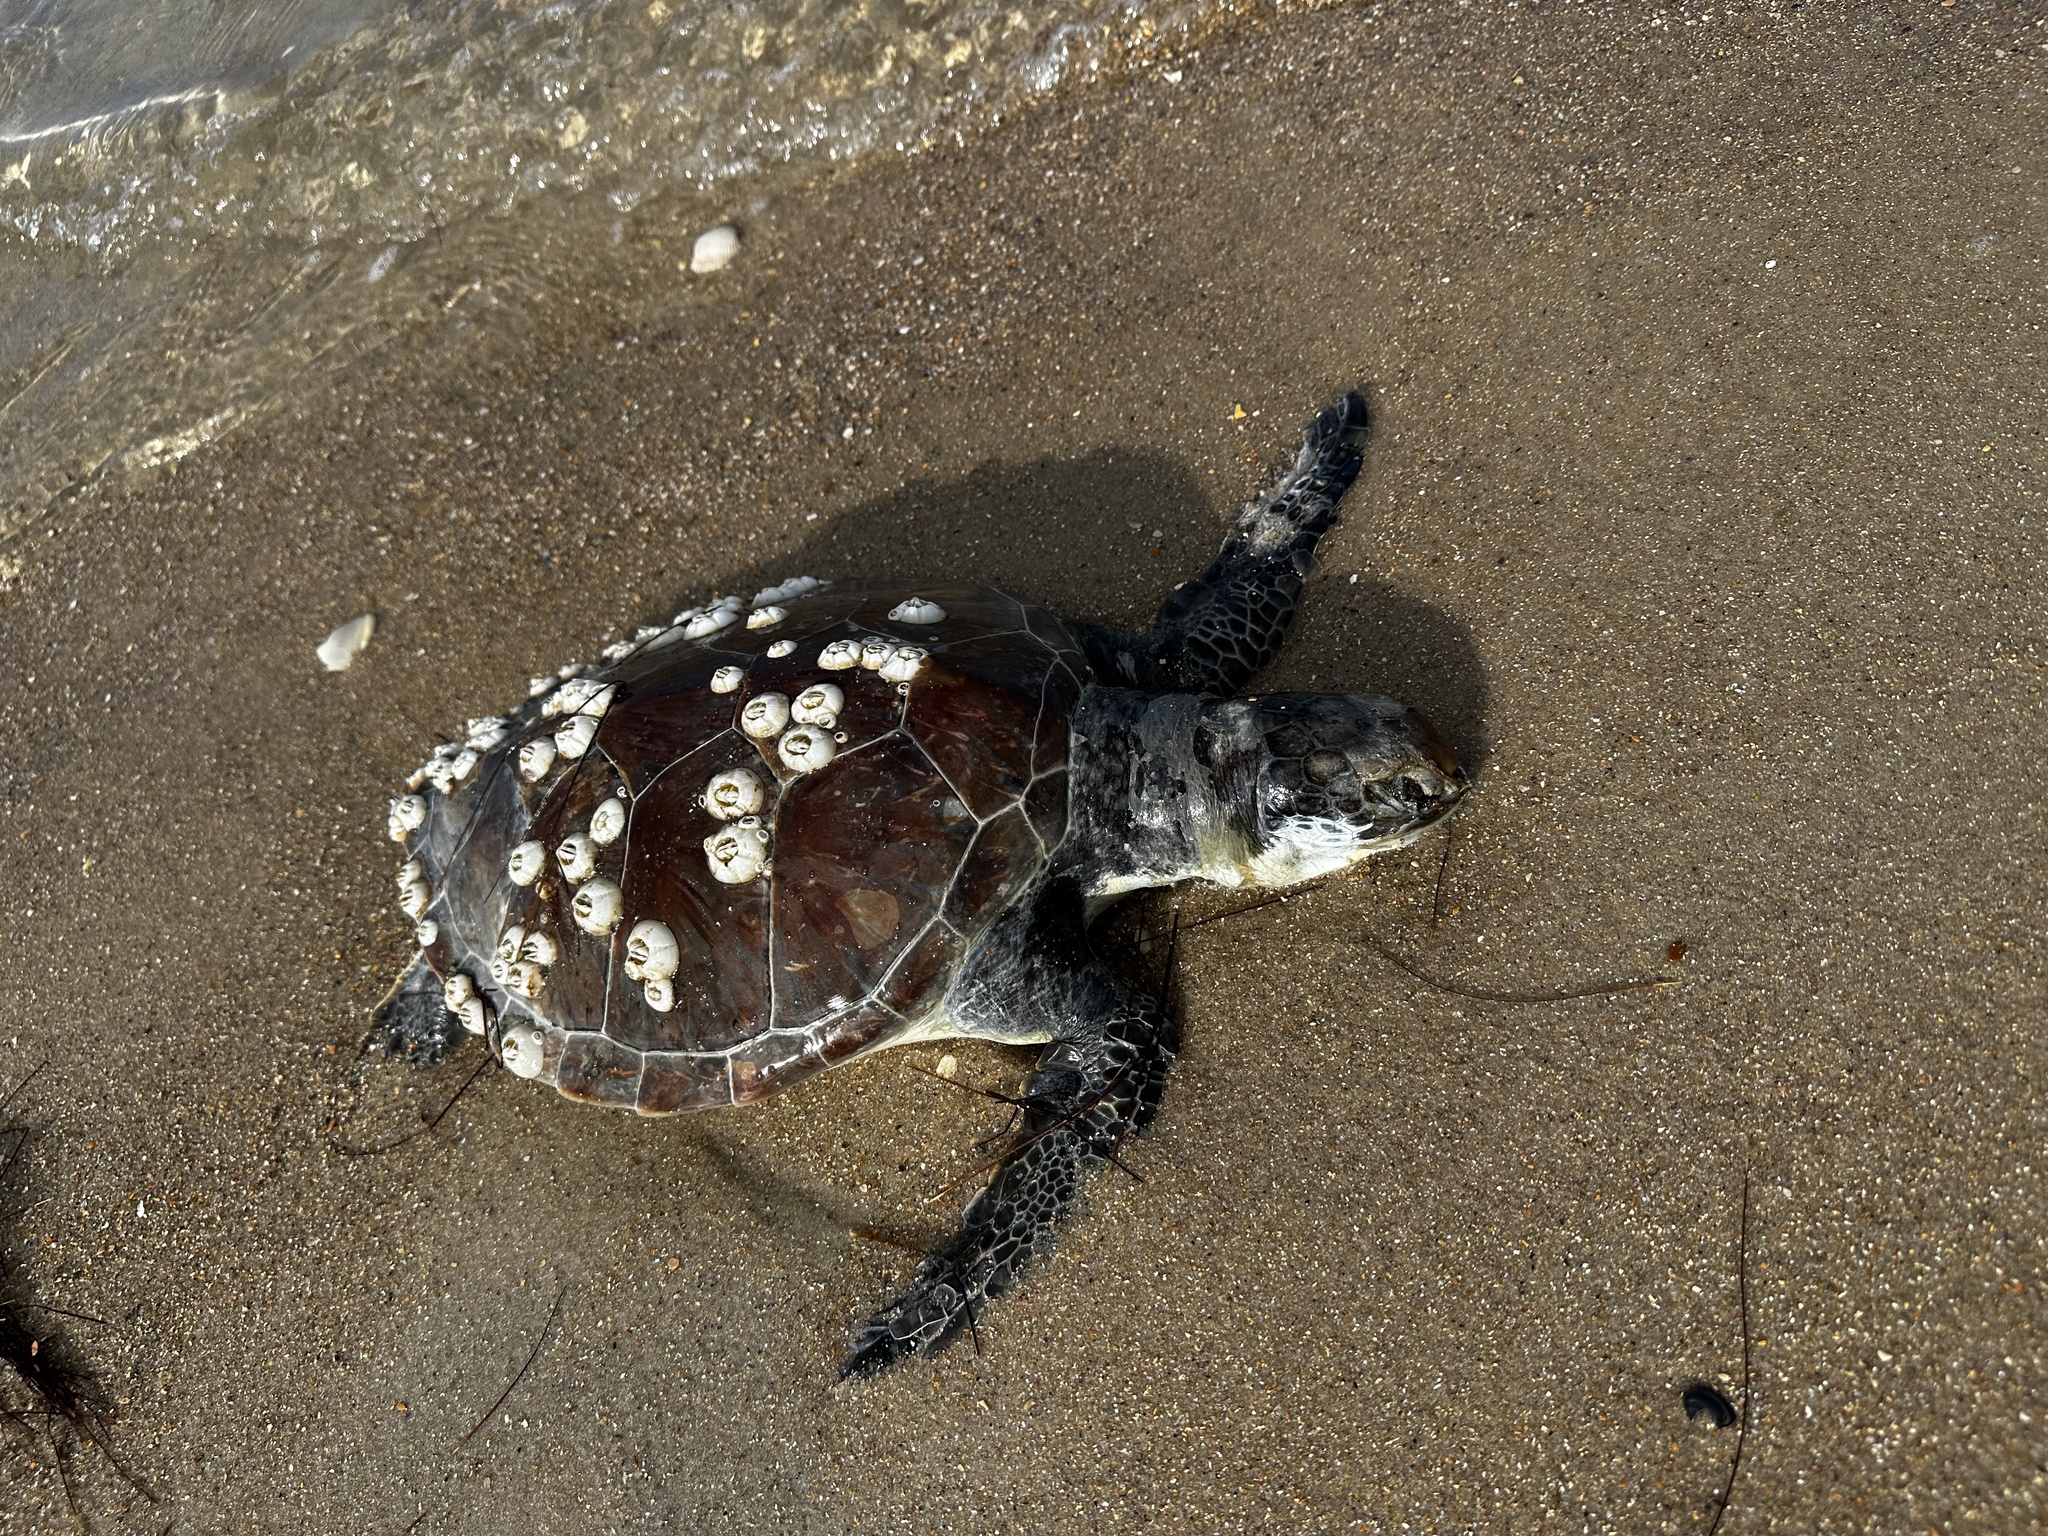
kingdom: Animalia
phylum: Chordata
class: Testudines
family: Cheloniidae
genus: Chelonia
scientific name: Chelonia mydas
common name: Green turtle
